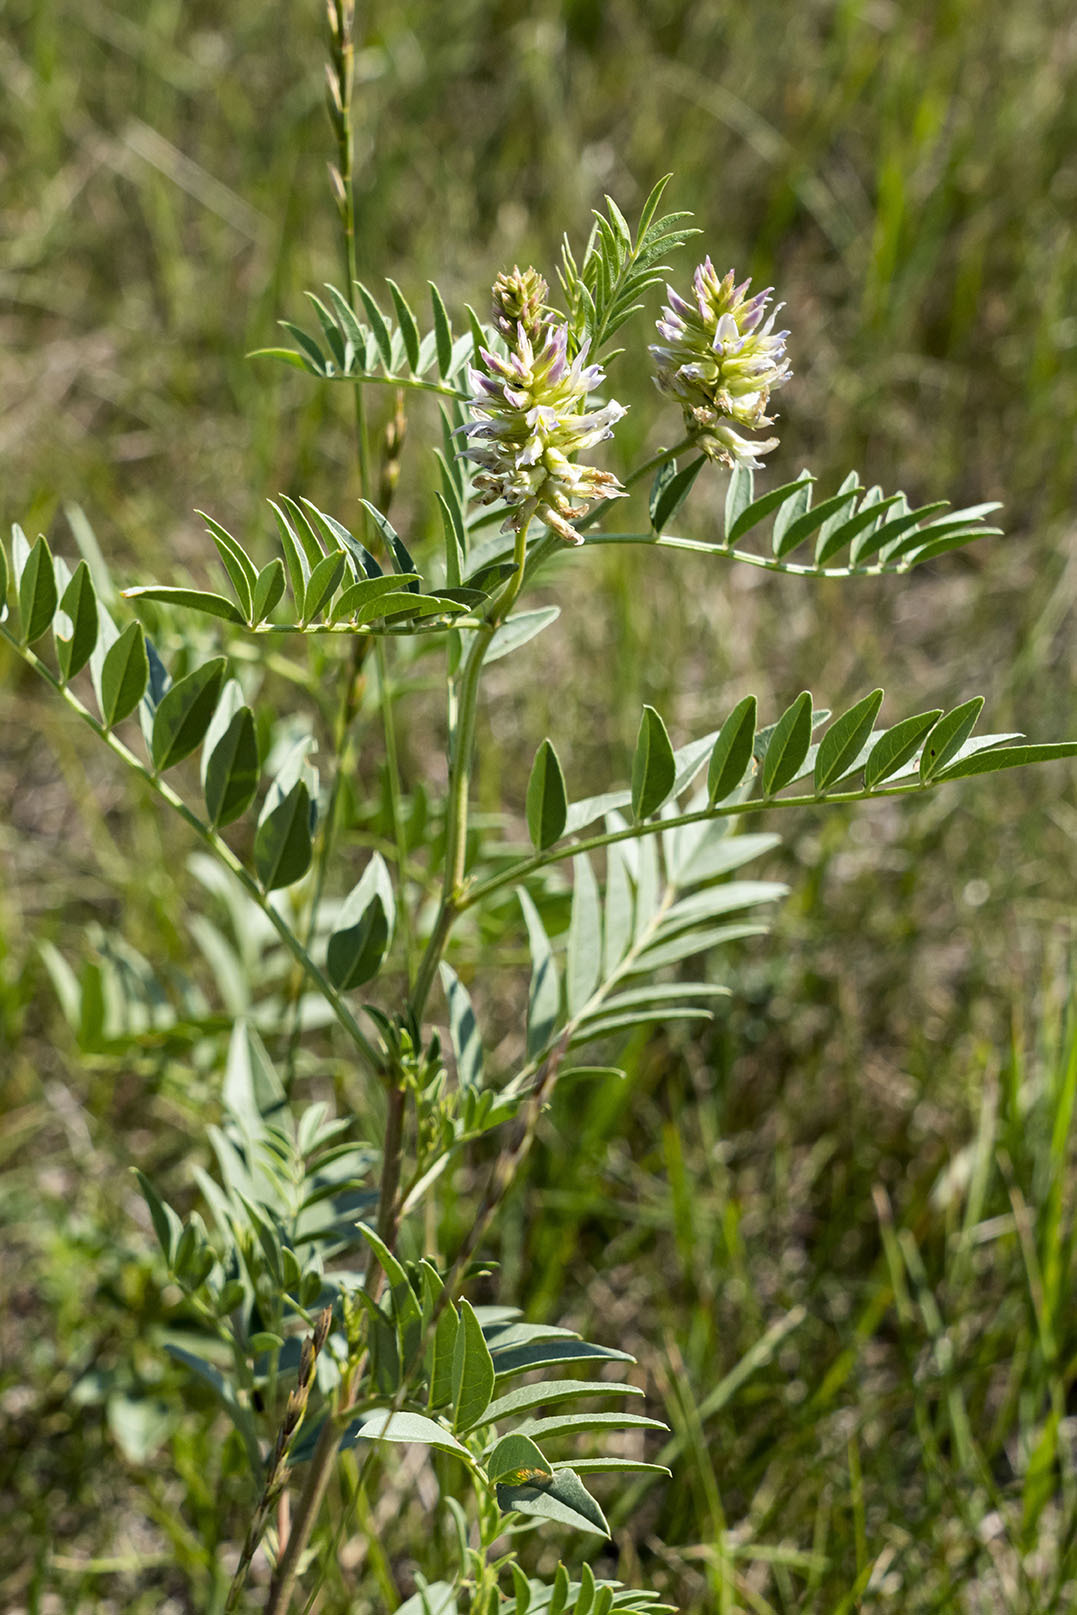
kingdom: Plantae
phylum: Tracheophyta
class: Magnoliopsida
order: Fabales
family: Fabaceae
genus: Glycyrrhiza
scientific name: Glycyrrhiza lepidota
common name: American liquorice
